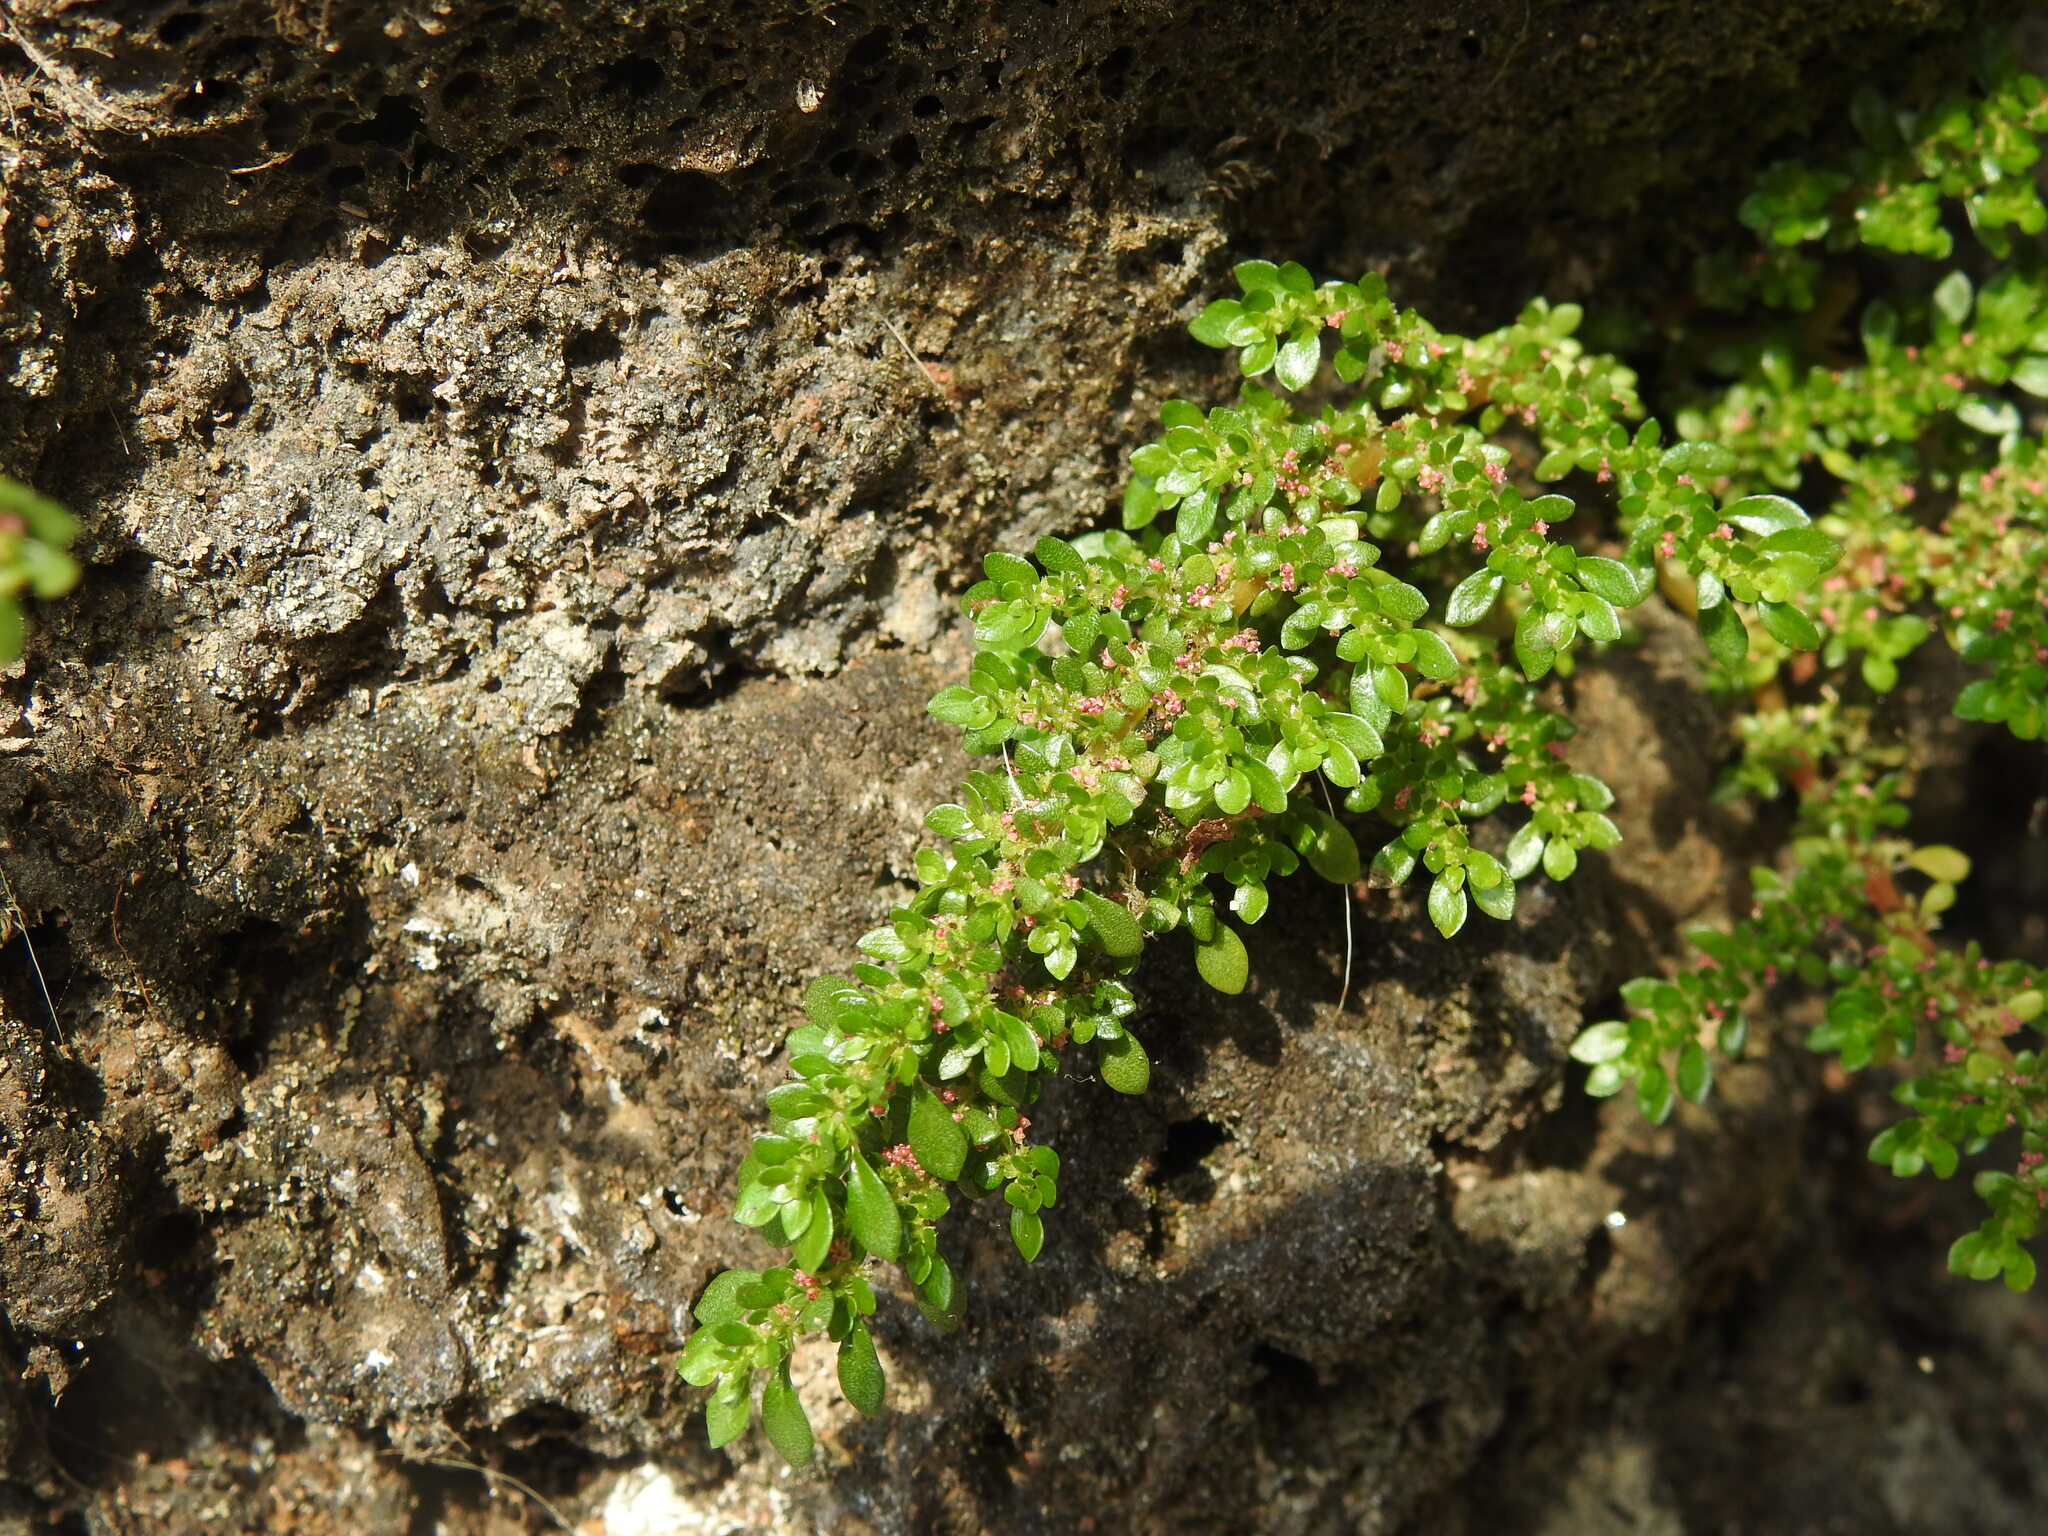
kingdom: Plantae
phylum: Tracheophyta
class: Magnoliopsida
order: Rosales
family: Urticaceae
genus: Pilea
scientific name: Pilea microphylla
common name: Artillery-plant
